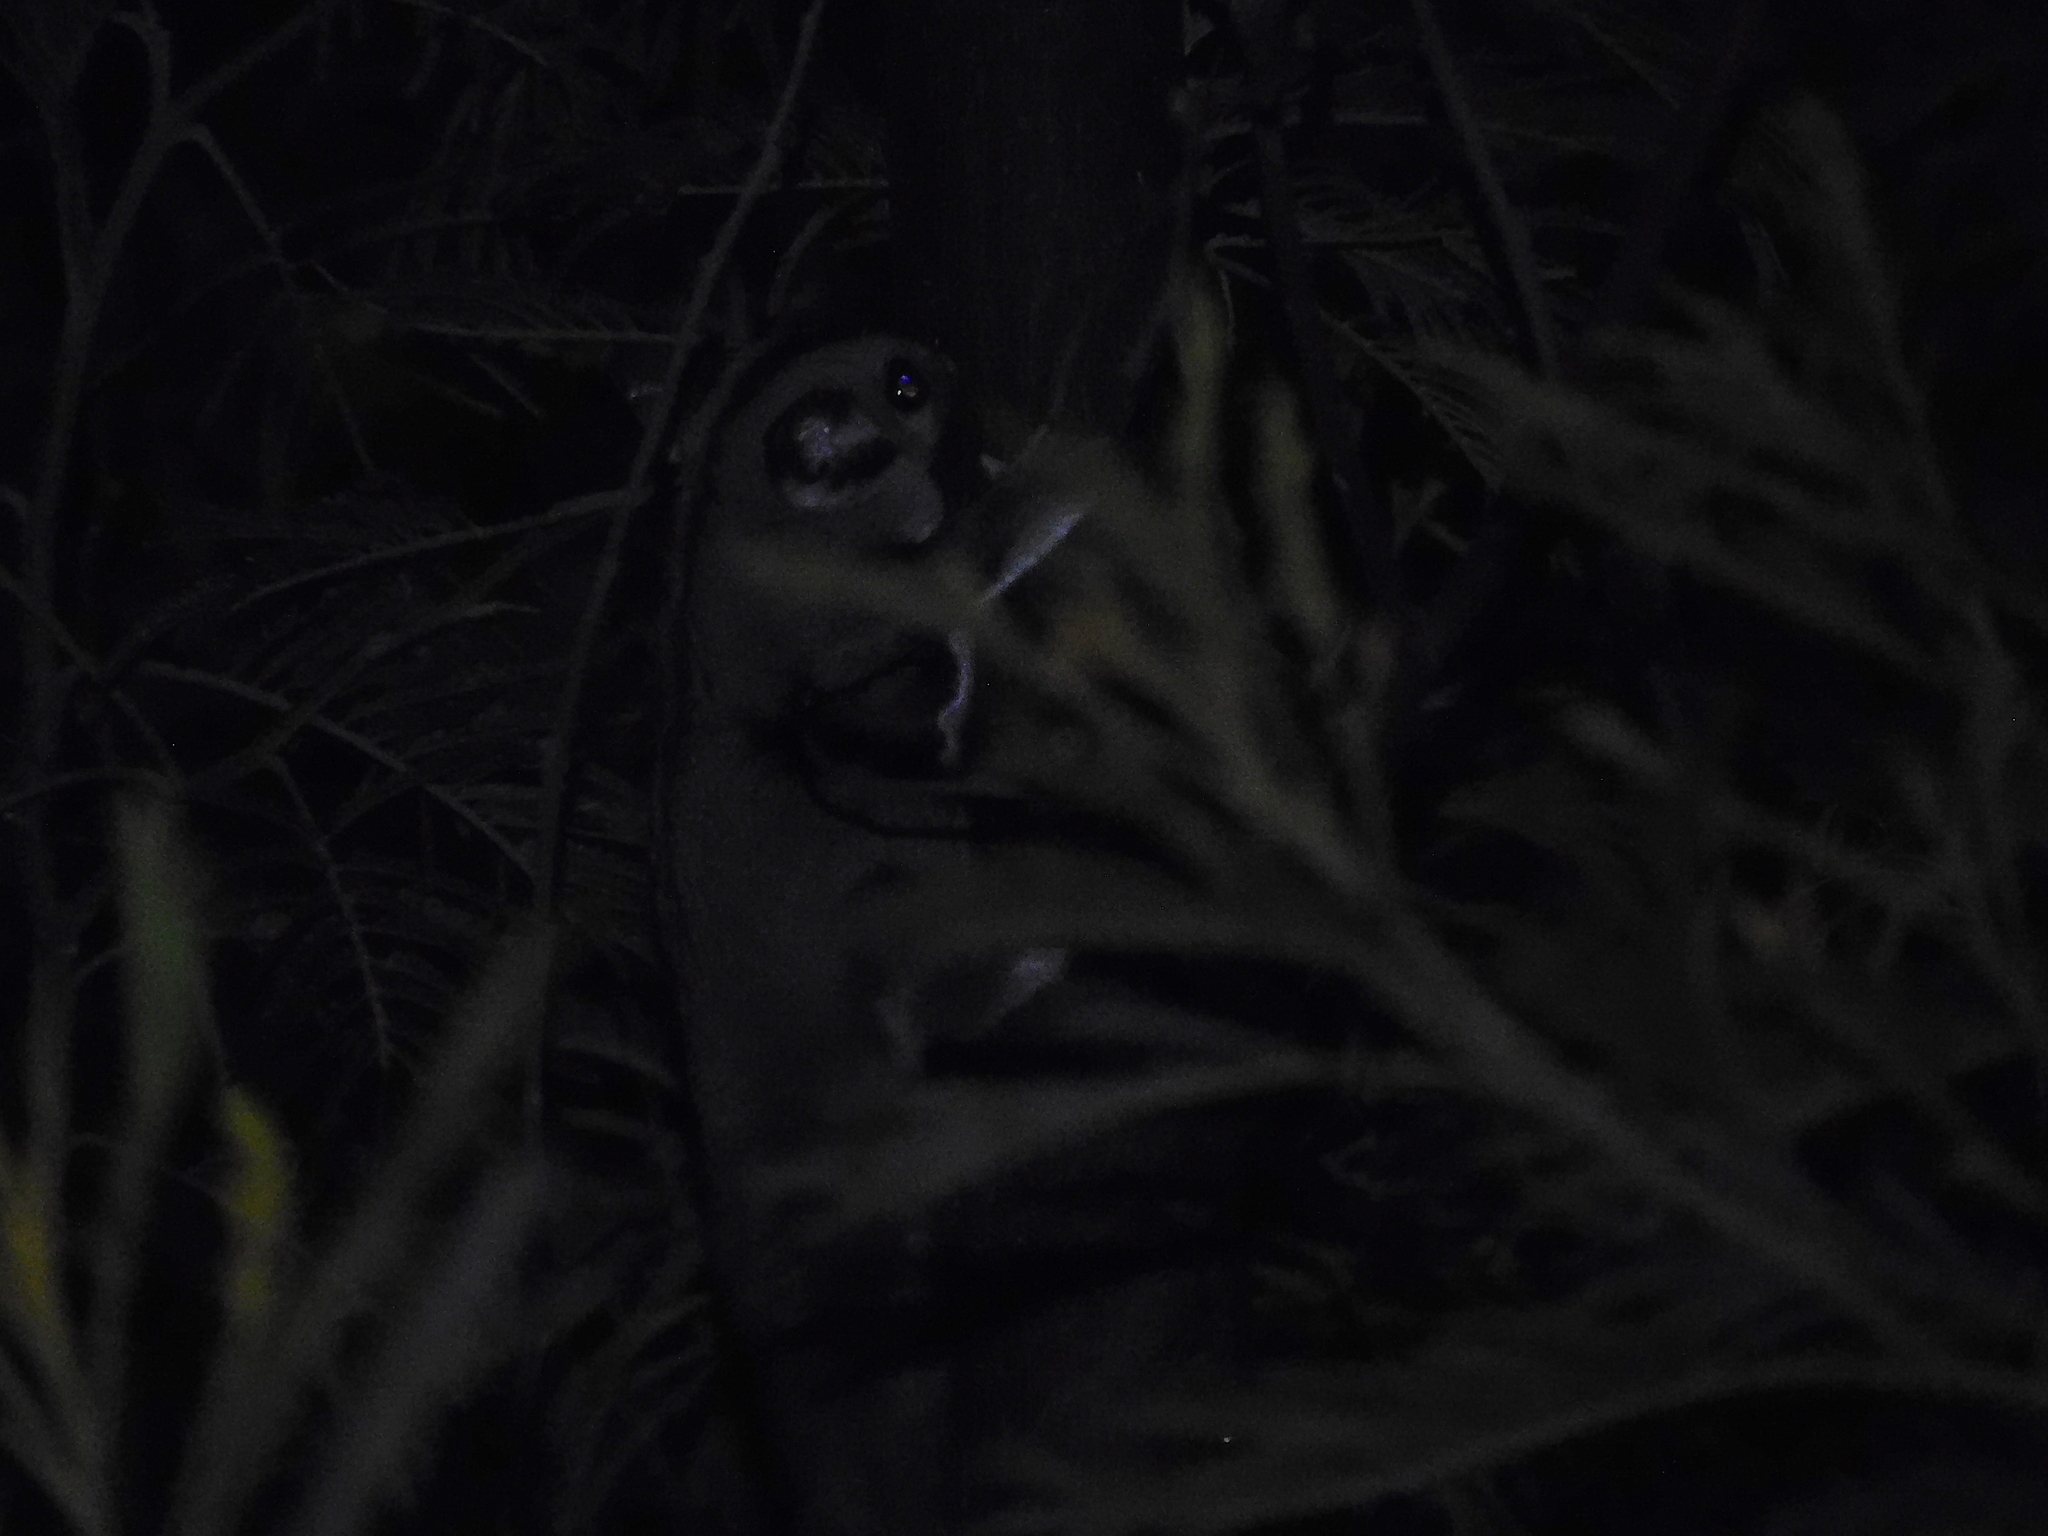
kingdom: Animalia
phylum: Chordata
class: Mammalia
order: Diprotodontia
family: Petauridae
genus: Petaurus
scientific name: Petaurus breviceps
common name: Sugar glider
